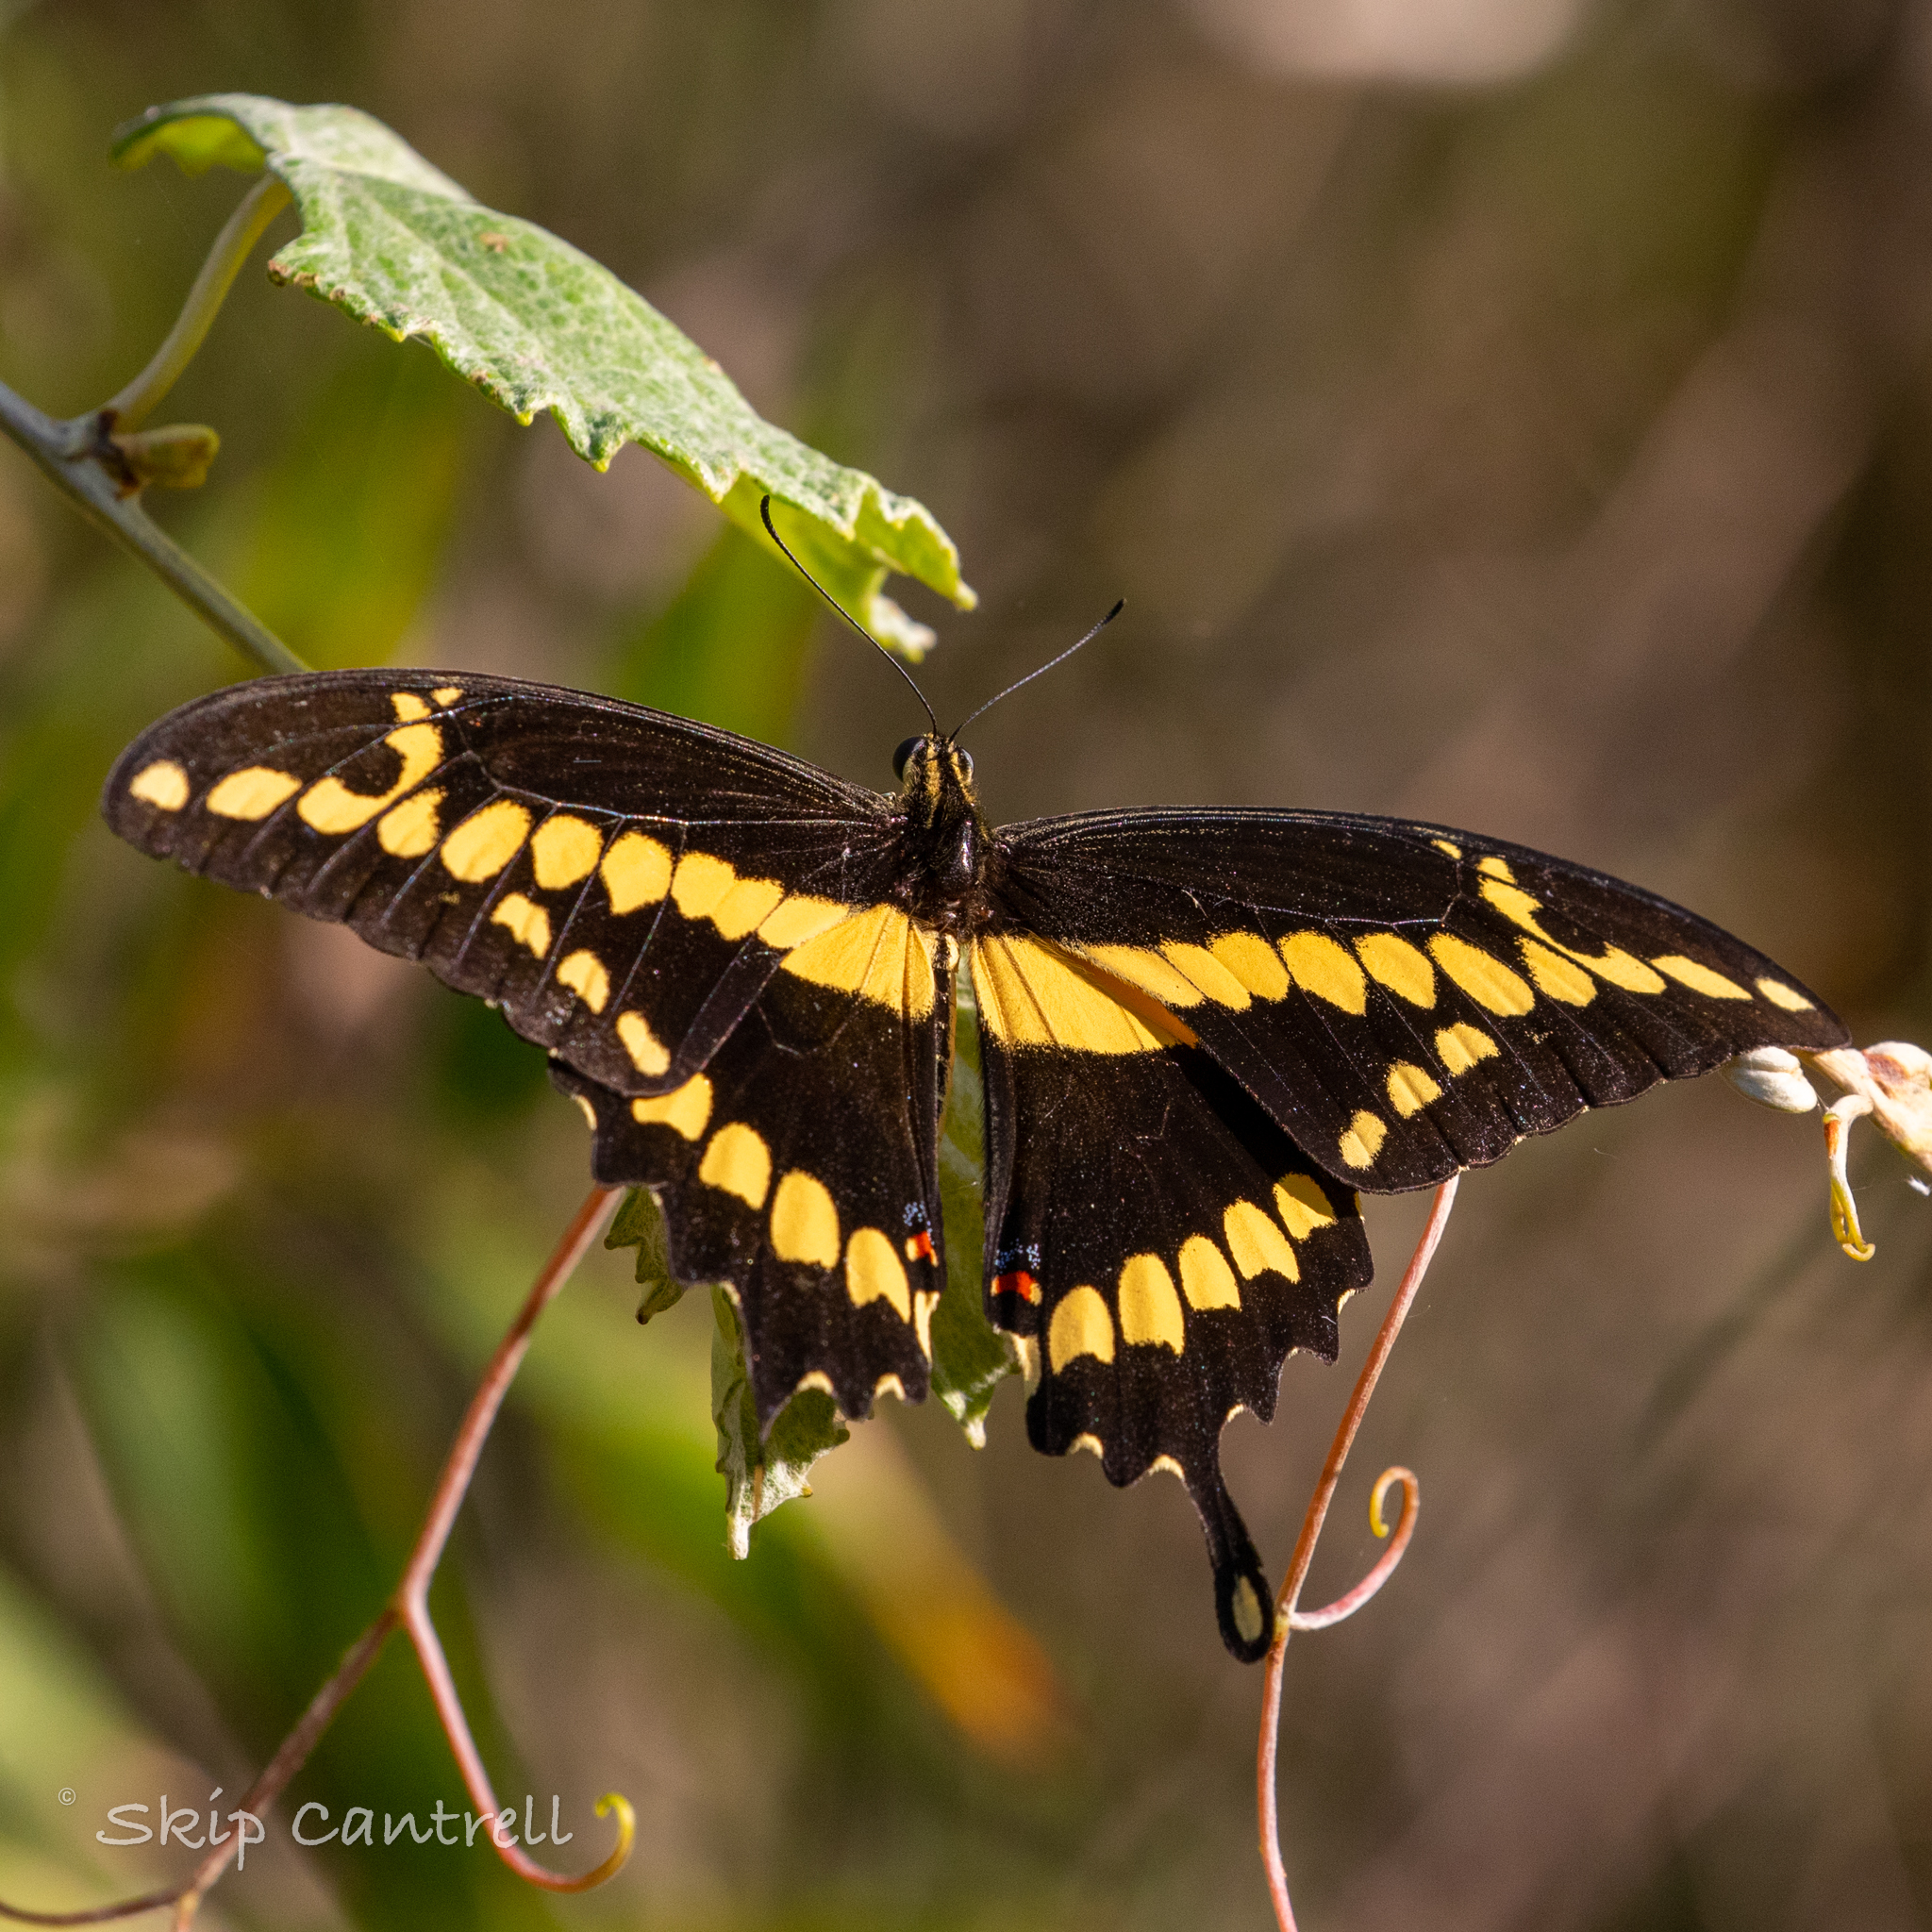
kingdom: Animalia
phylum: Arthropoda
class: Insecta
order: Lepidoptera
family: Papilionidae
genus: Papilio
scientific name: Papilio rumiko
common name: Western giant swallowtail
